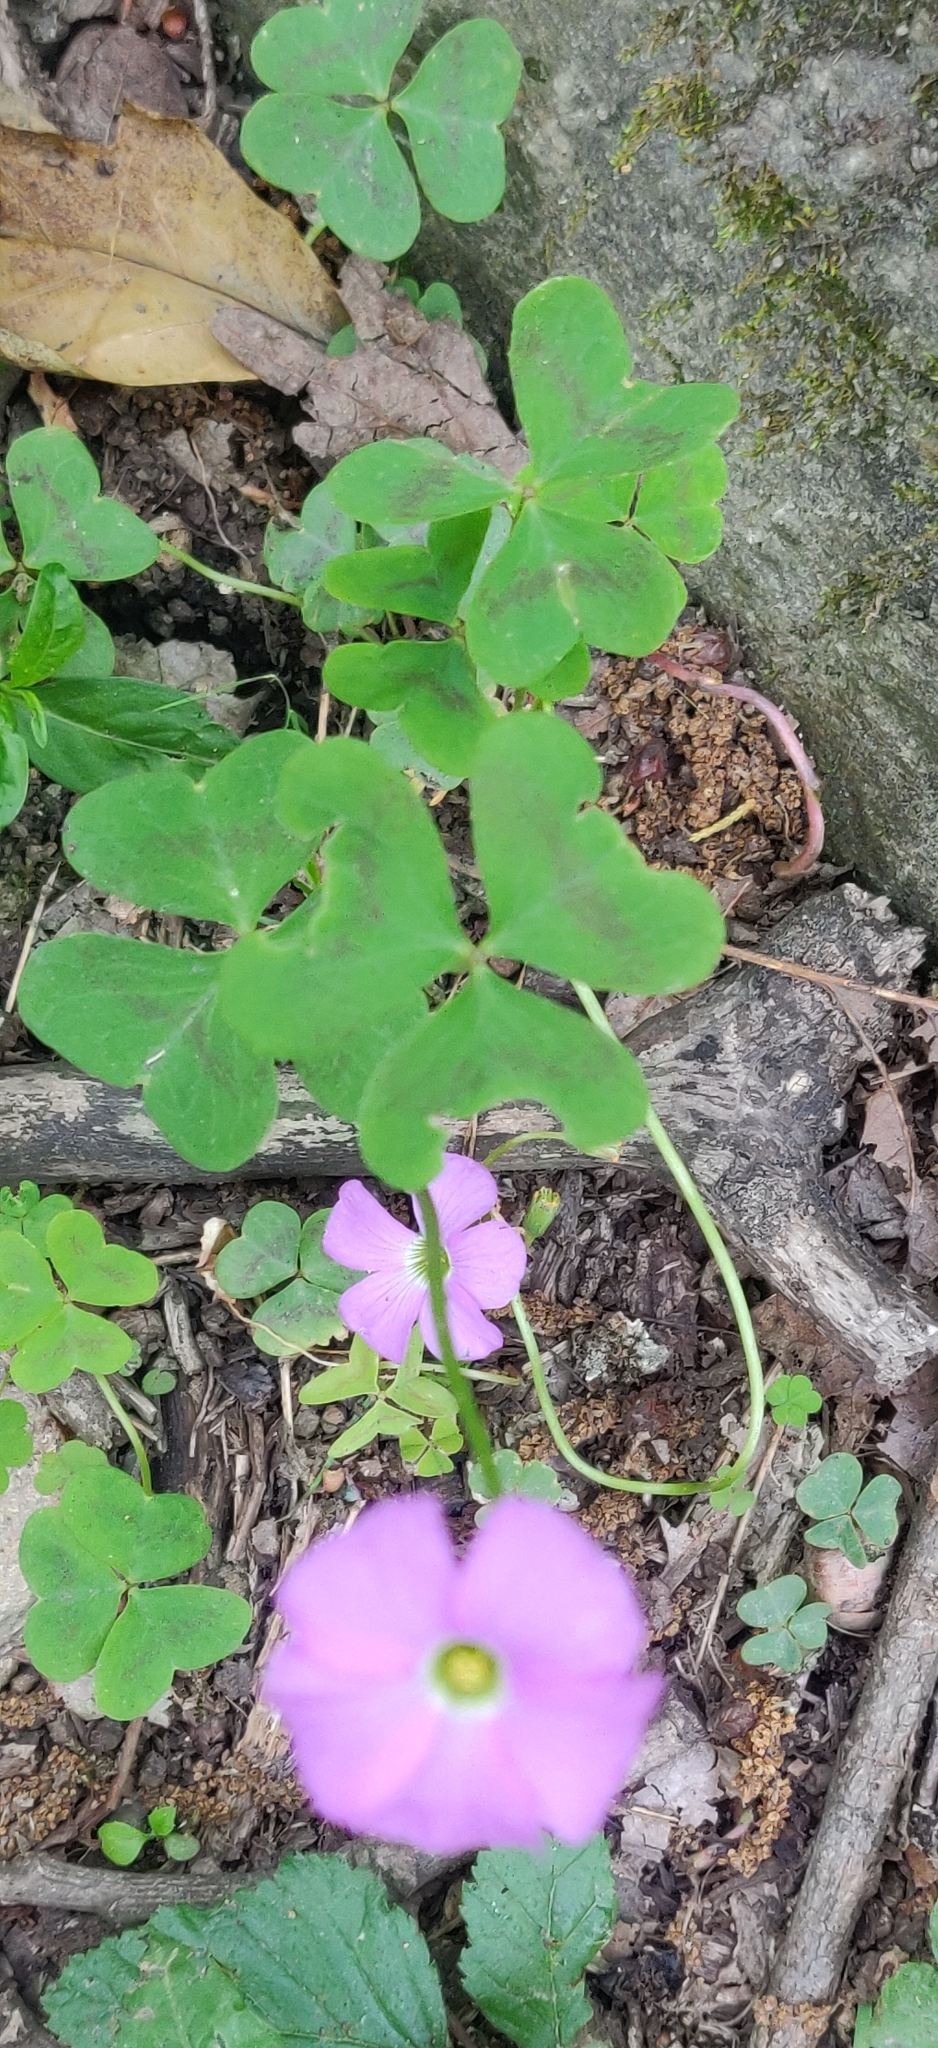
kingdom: Plantae
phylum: Tracheophyta
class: Magnoliopsida
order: Oxalidales
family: Oxalidaceae
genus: Oxalis
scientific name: Oxalis violacea
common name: Violet wood-sorrel
